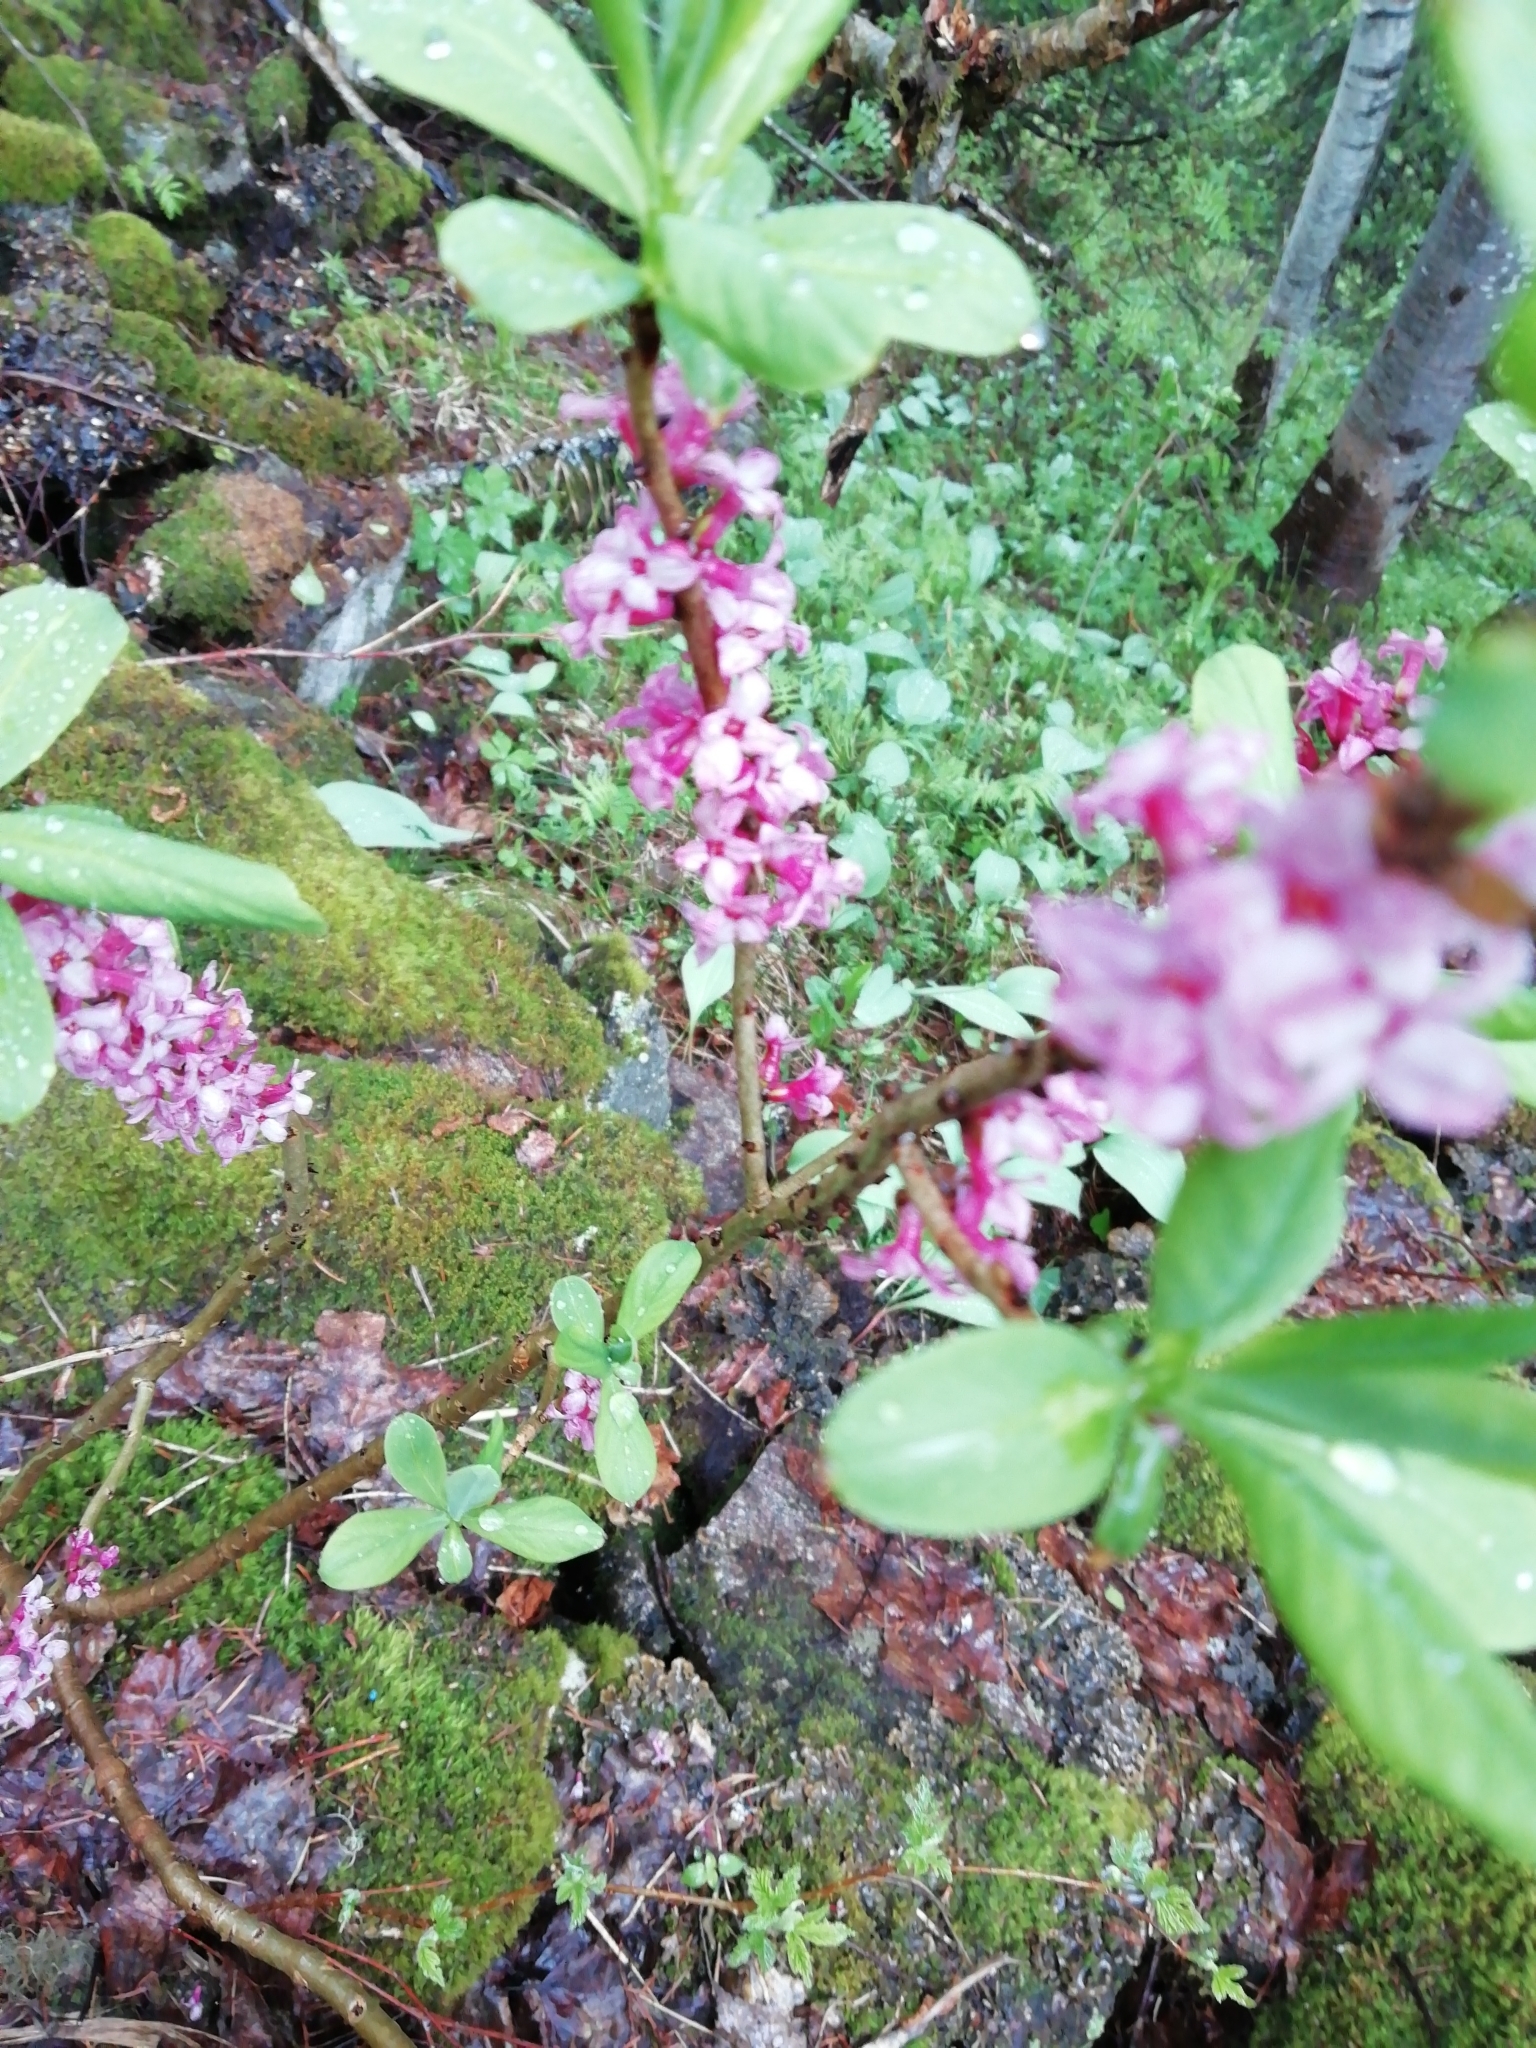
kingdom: Plantae
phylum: Tracheophyta
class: Magnoliopsida
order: Malvales
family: Thymelaeaceae
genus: Daphne
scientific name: Daphne mezereum
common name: Mezereon
